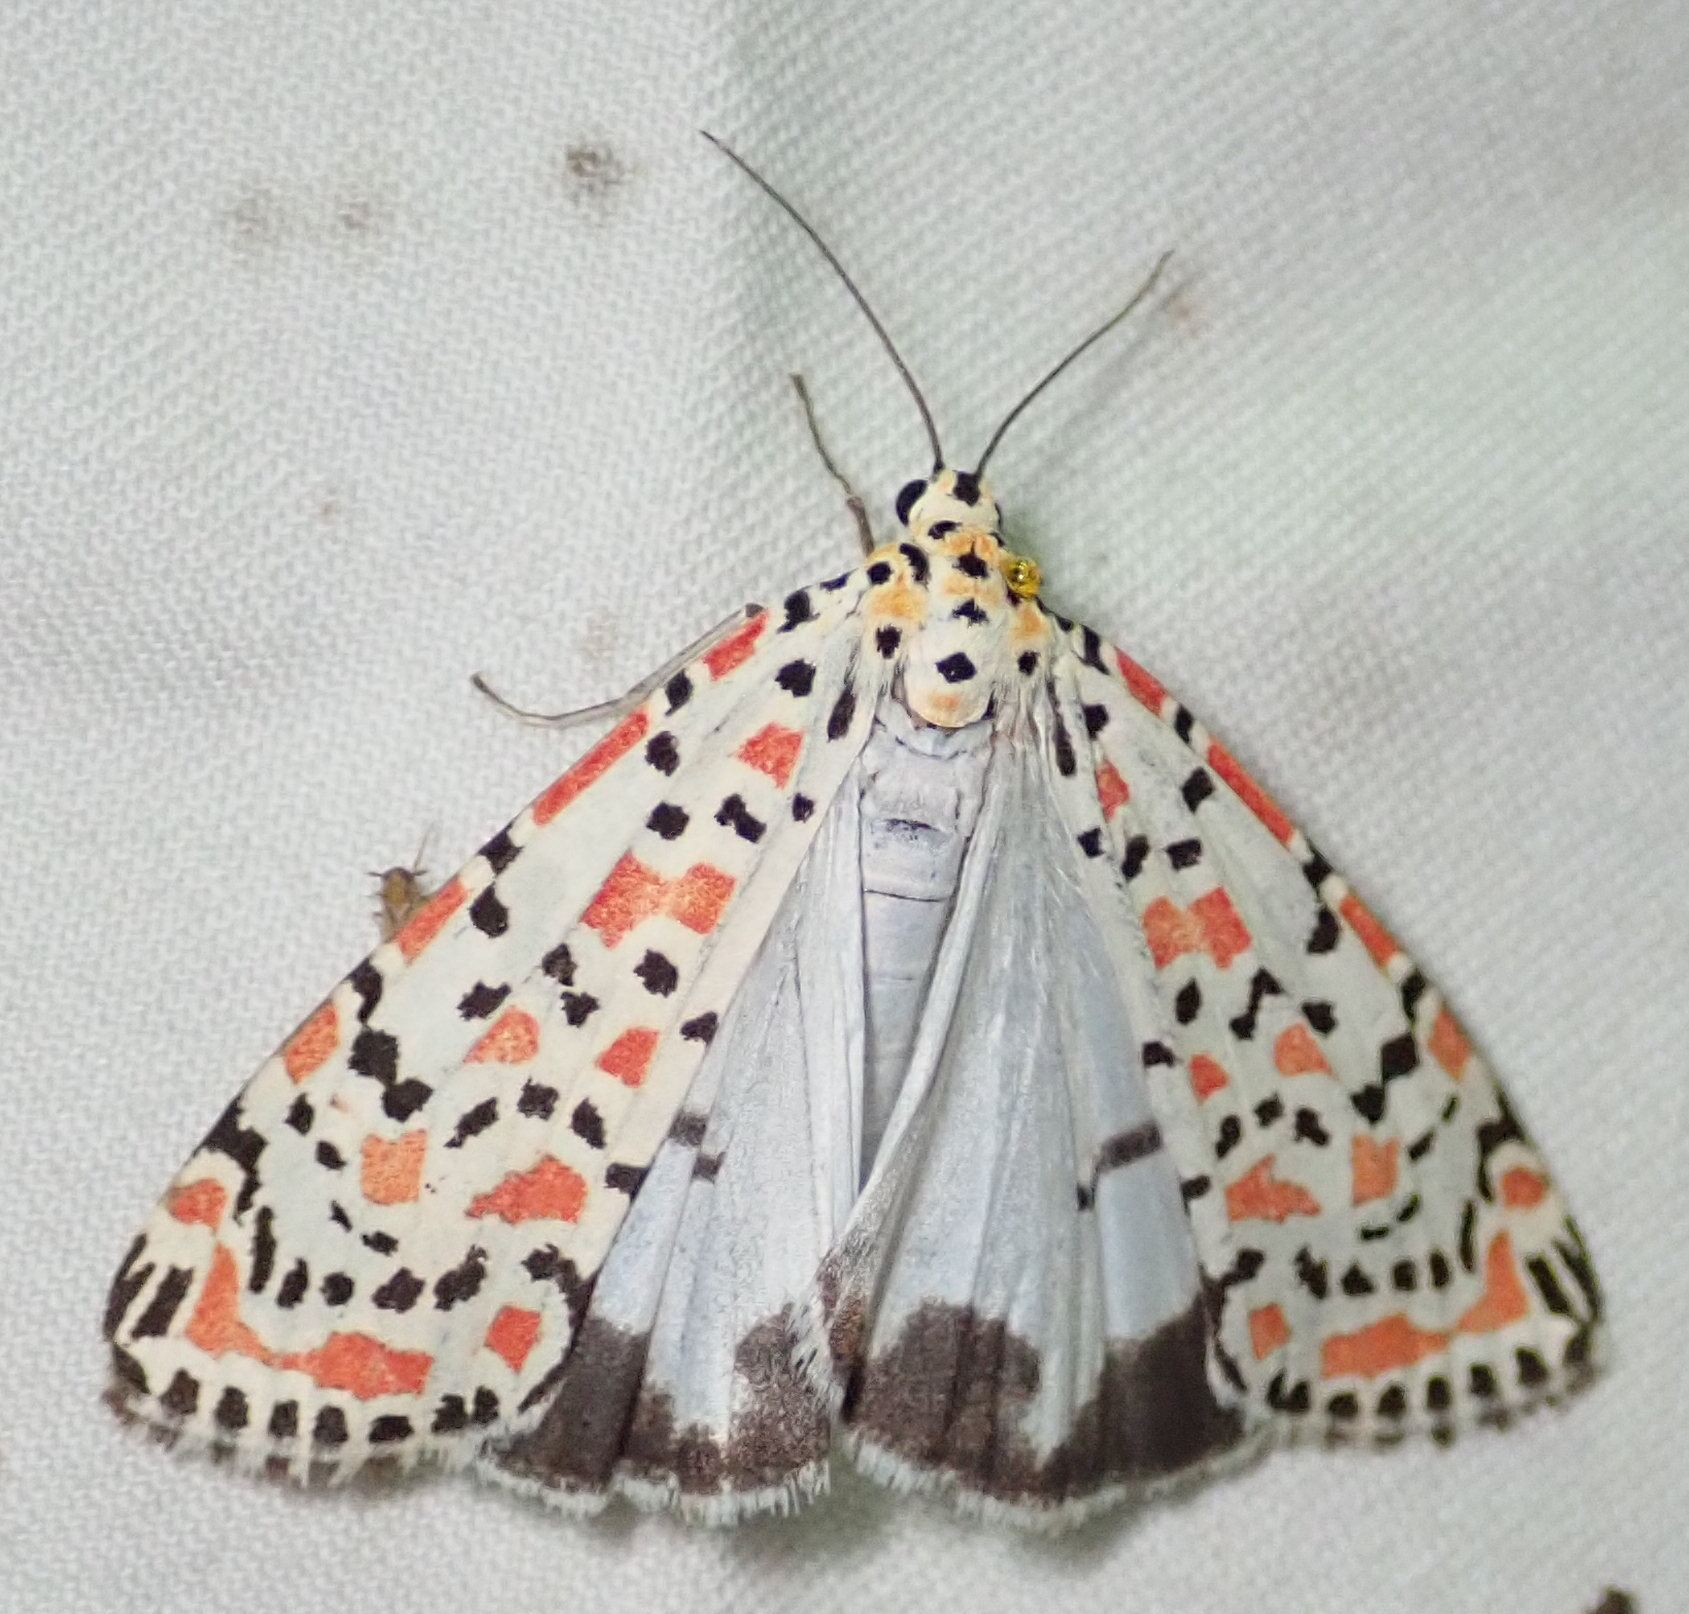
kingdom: Animalia
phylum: Arthropoda
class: Insecta
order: Lepidoptera
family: Erebidae
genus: Utetheisa
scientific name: Utetheisa pulchella
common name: Crimson speckled
